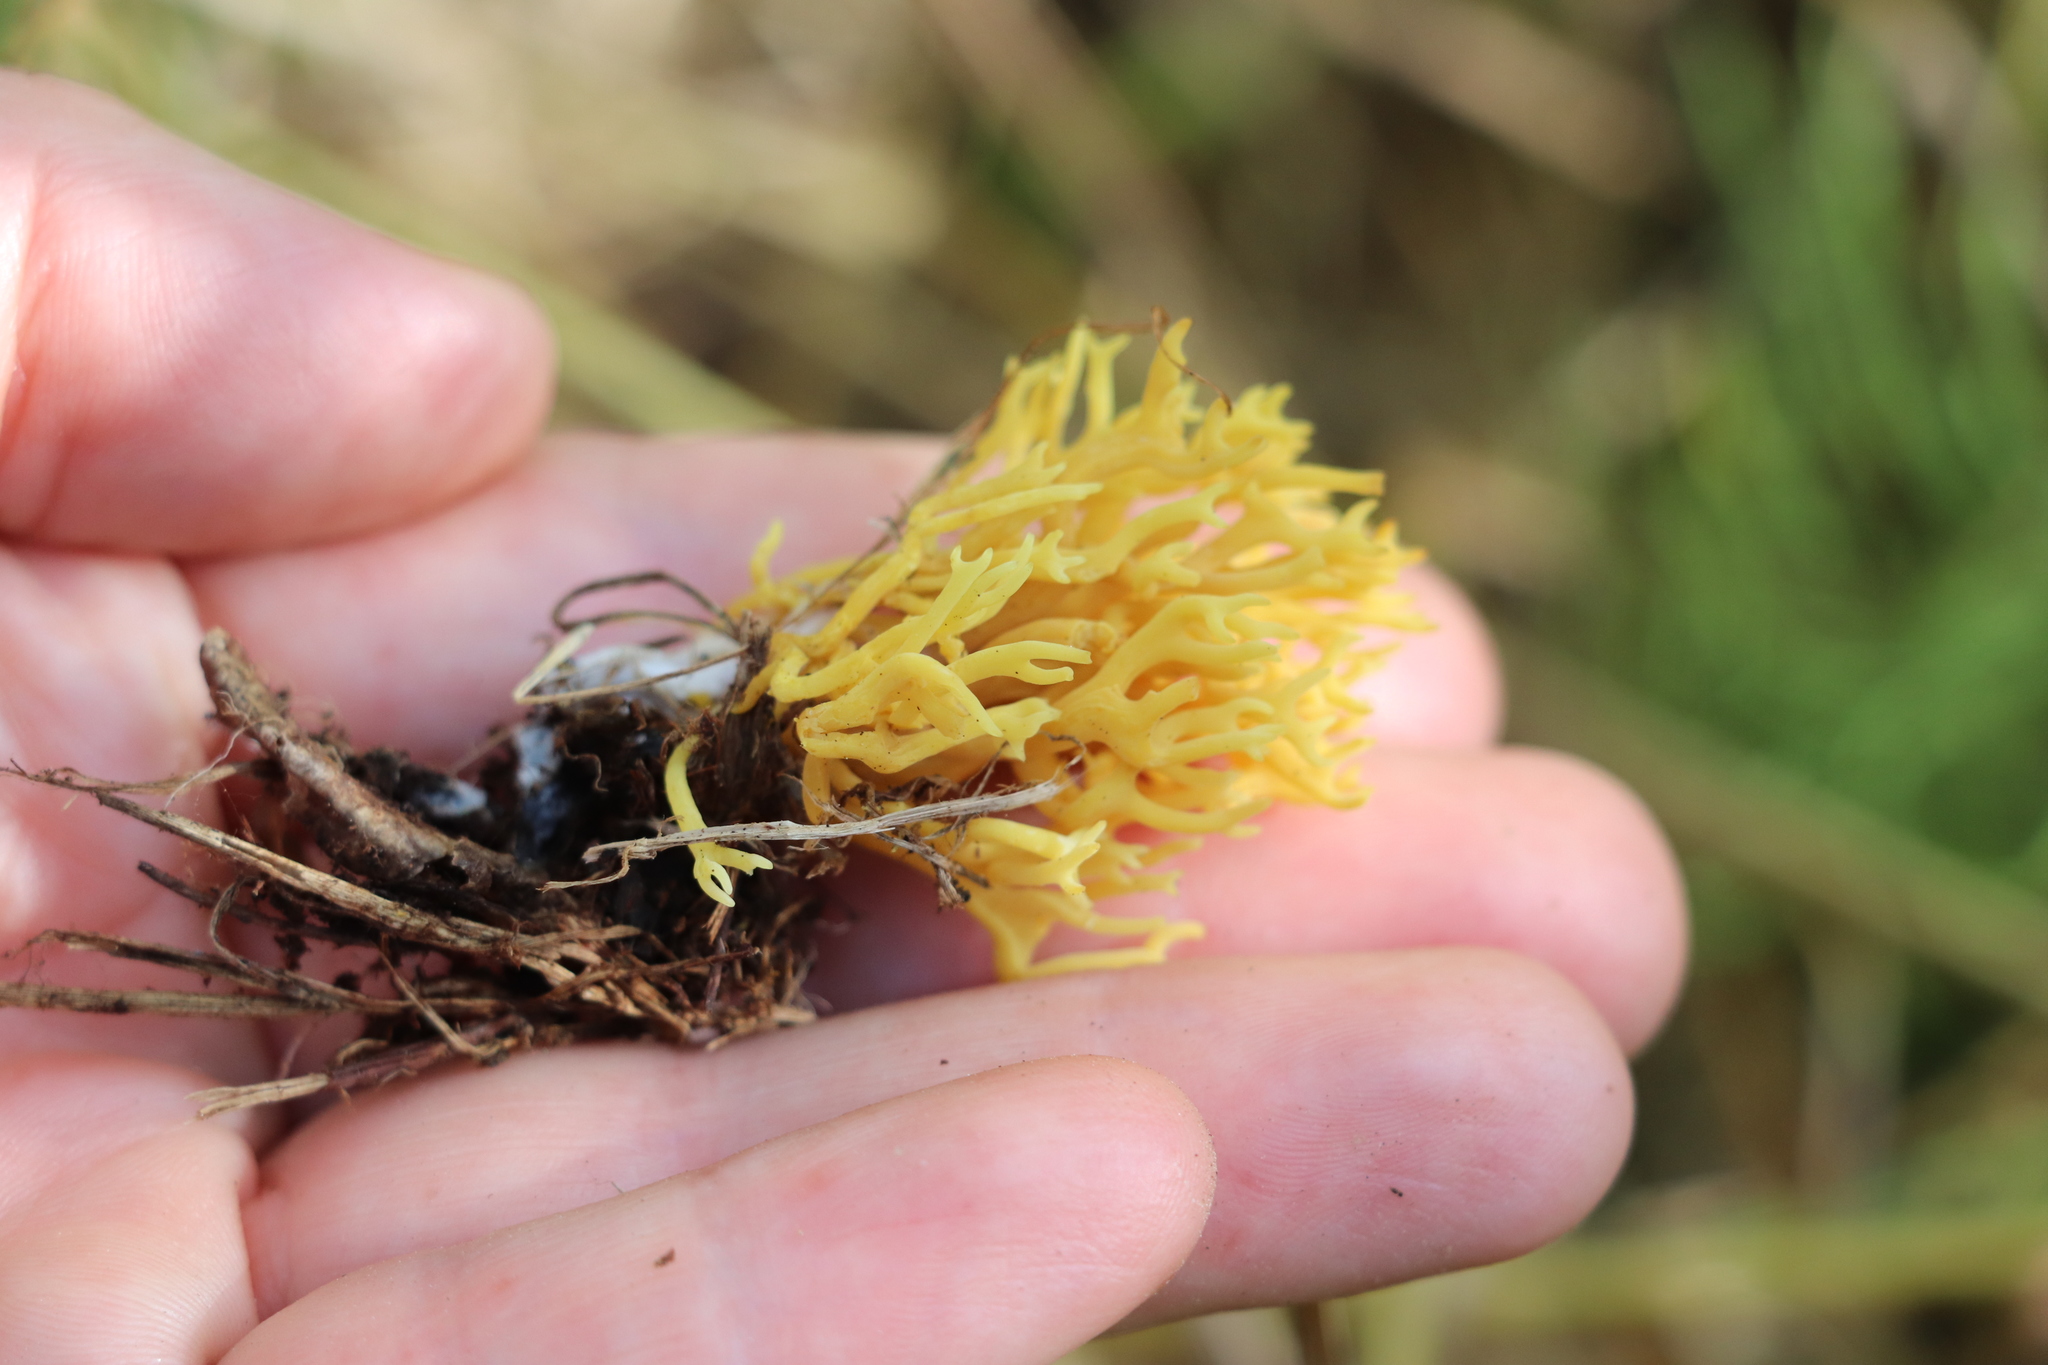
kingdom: Fungi
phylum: Basidiomycota
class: Agaricomycetes
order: Agaricales
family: Clavariaceae
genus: Ramariopsis
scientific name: Ramariopsis crocea
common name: Orange coral
